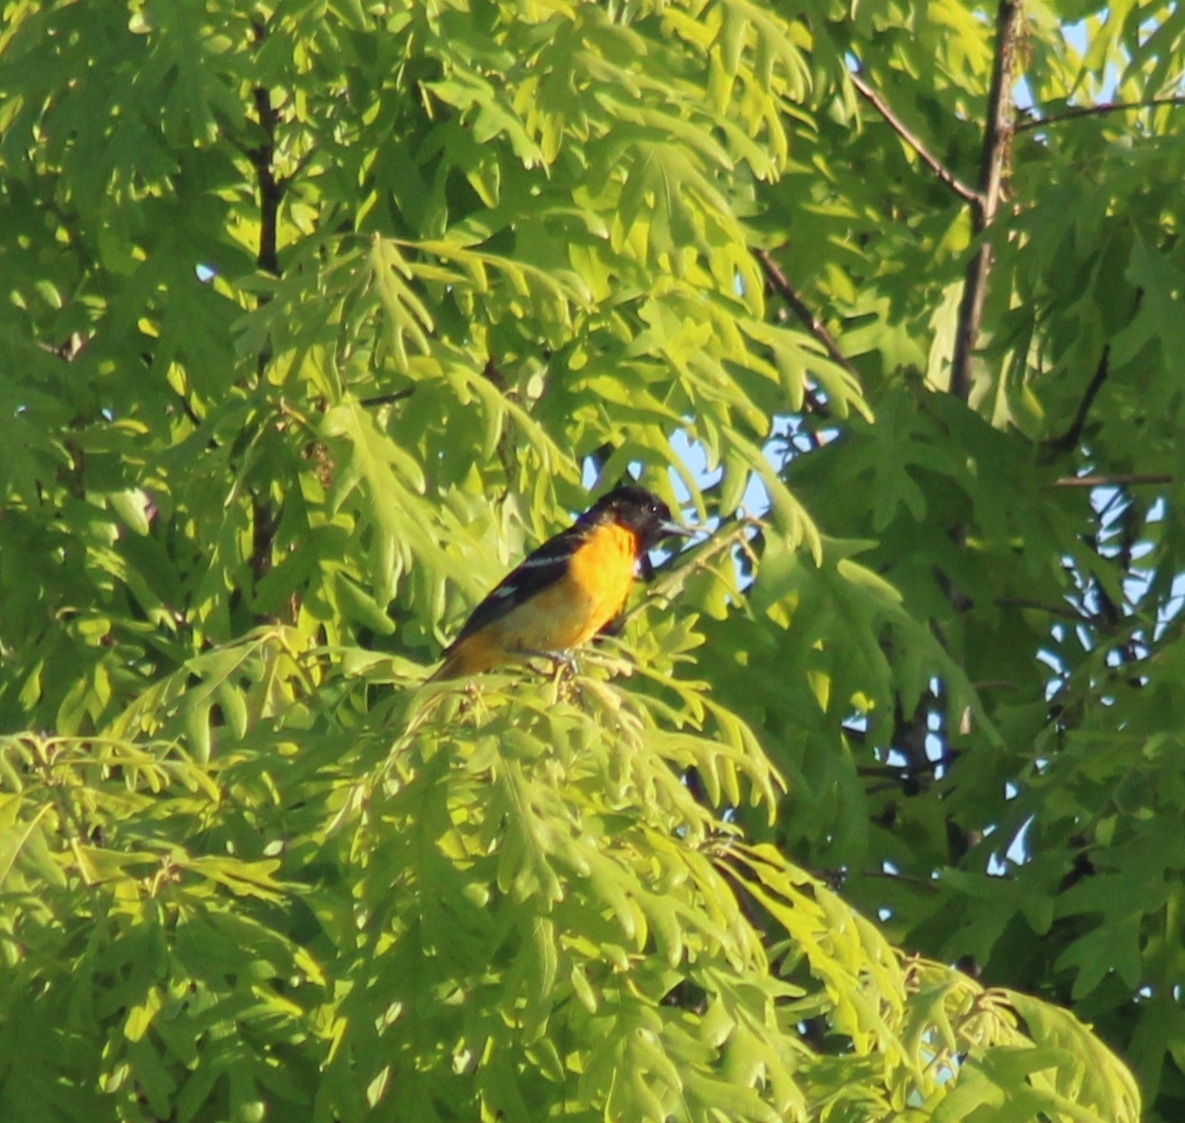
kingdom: Animalia
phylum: Chordata
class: Aves
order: Passeriformes
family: Icteridae
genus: Icterus
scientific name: Icterus galbula
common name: Baltimore oriole
